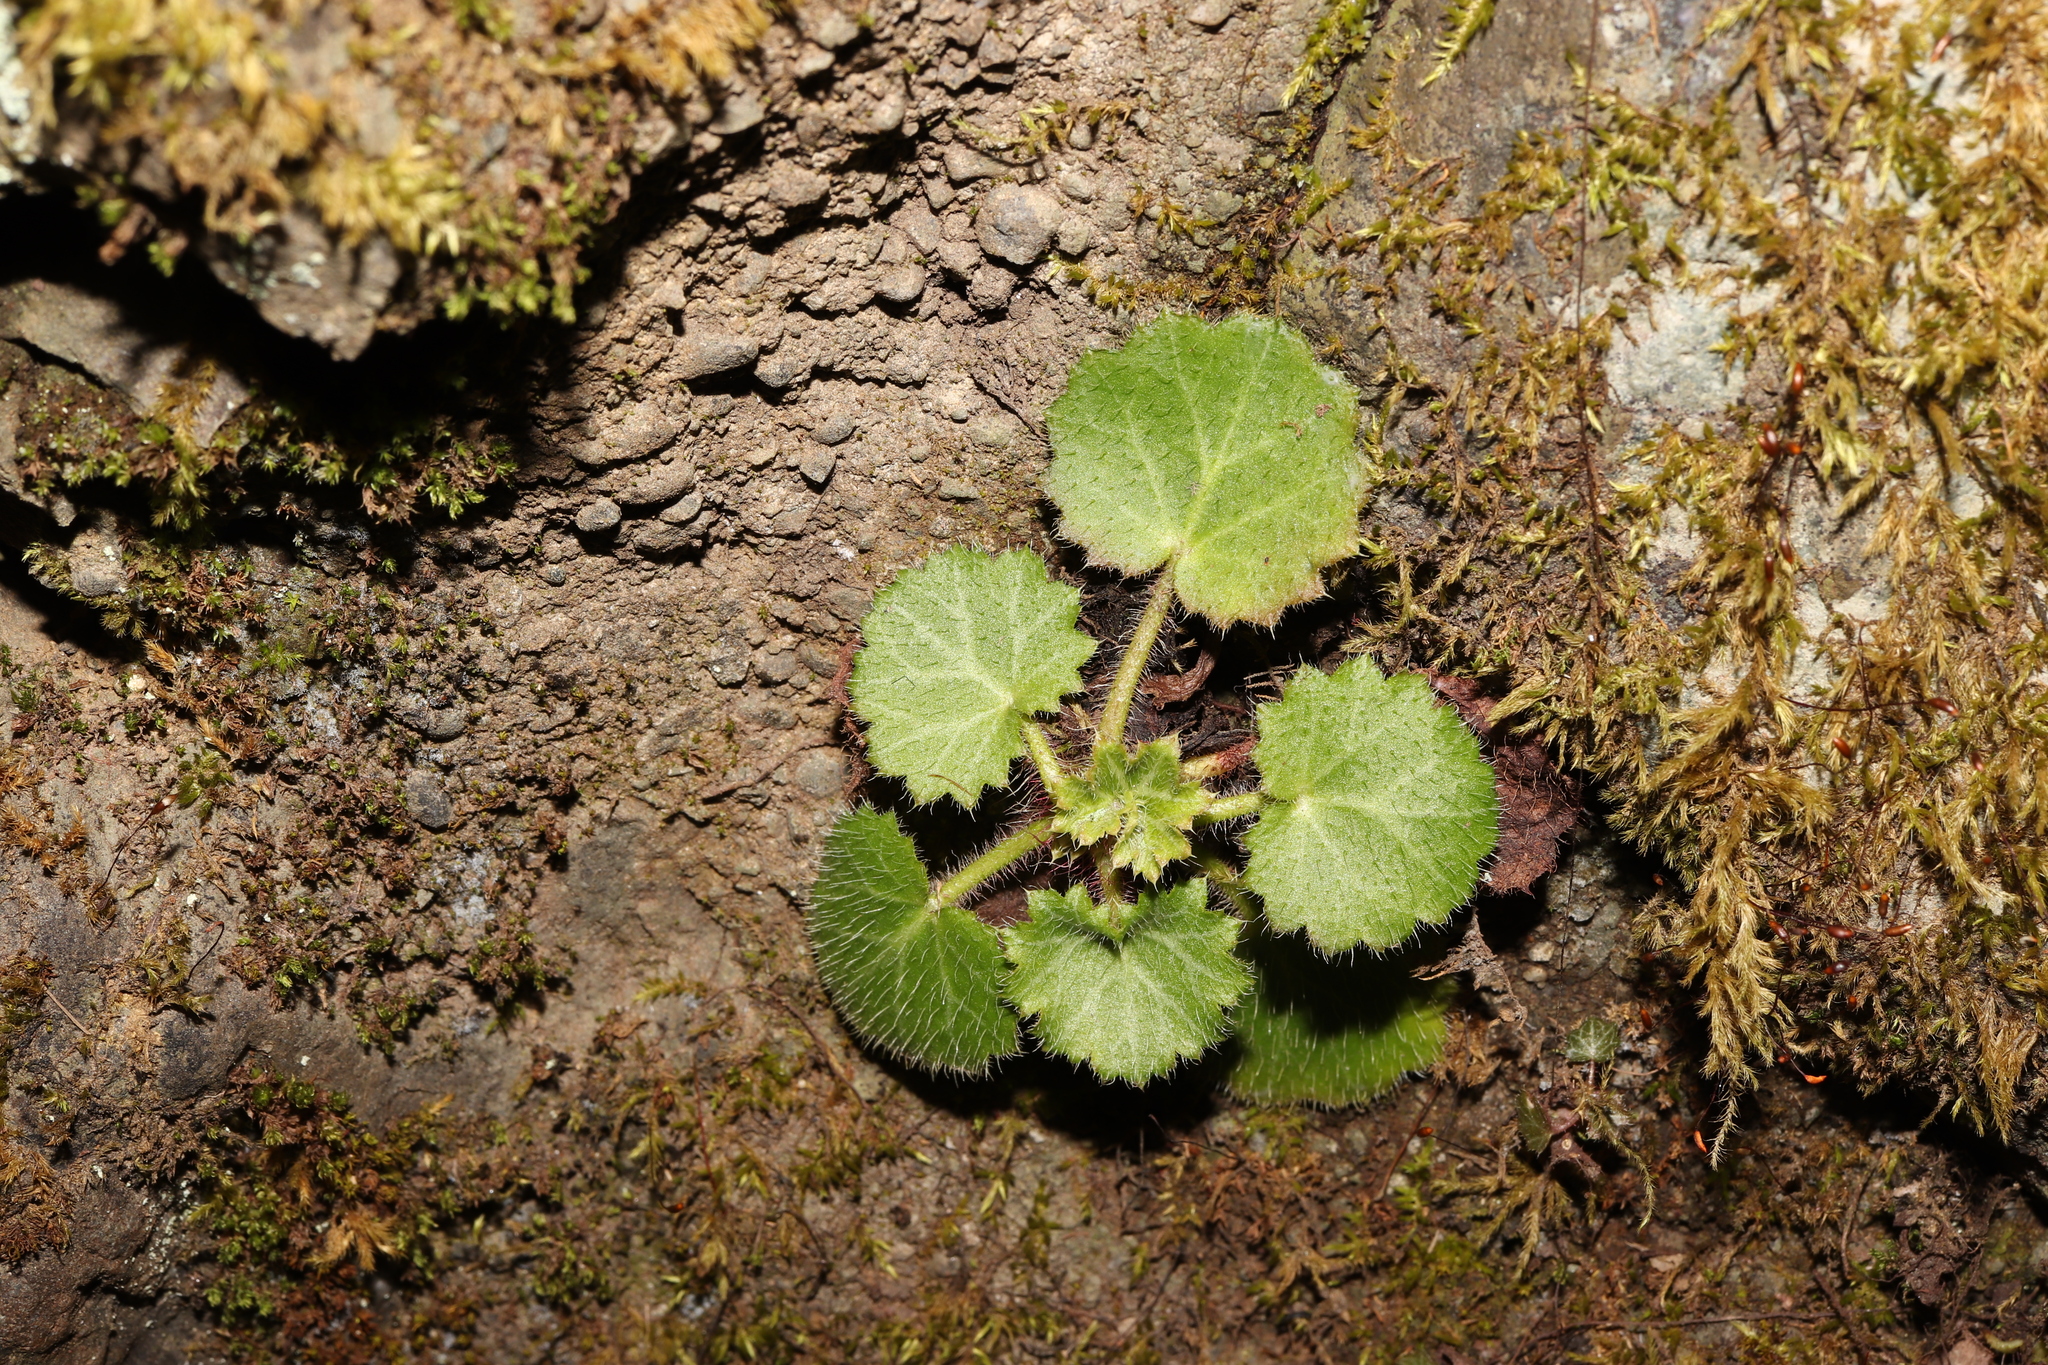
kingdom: Plantae
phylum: Tracheophyta
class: Magnoliopsida
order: Saxifragales
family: Saxifragaceae
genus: Saxifraga
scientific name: Saxifraga stolonifera
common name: Creeping saxifrage
